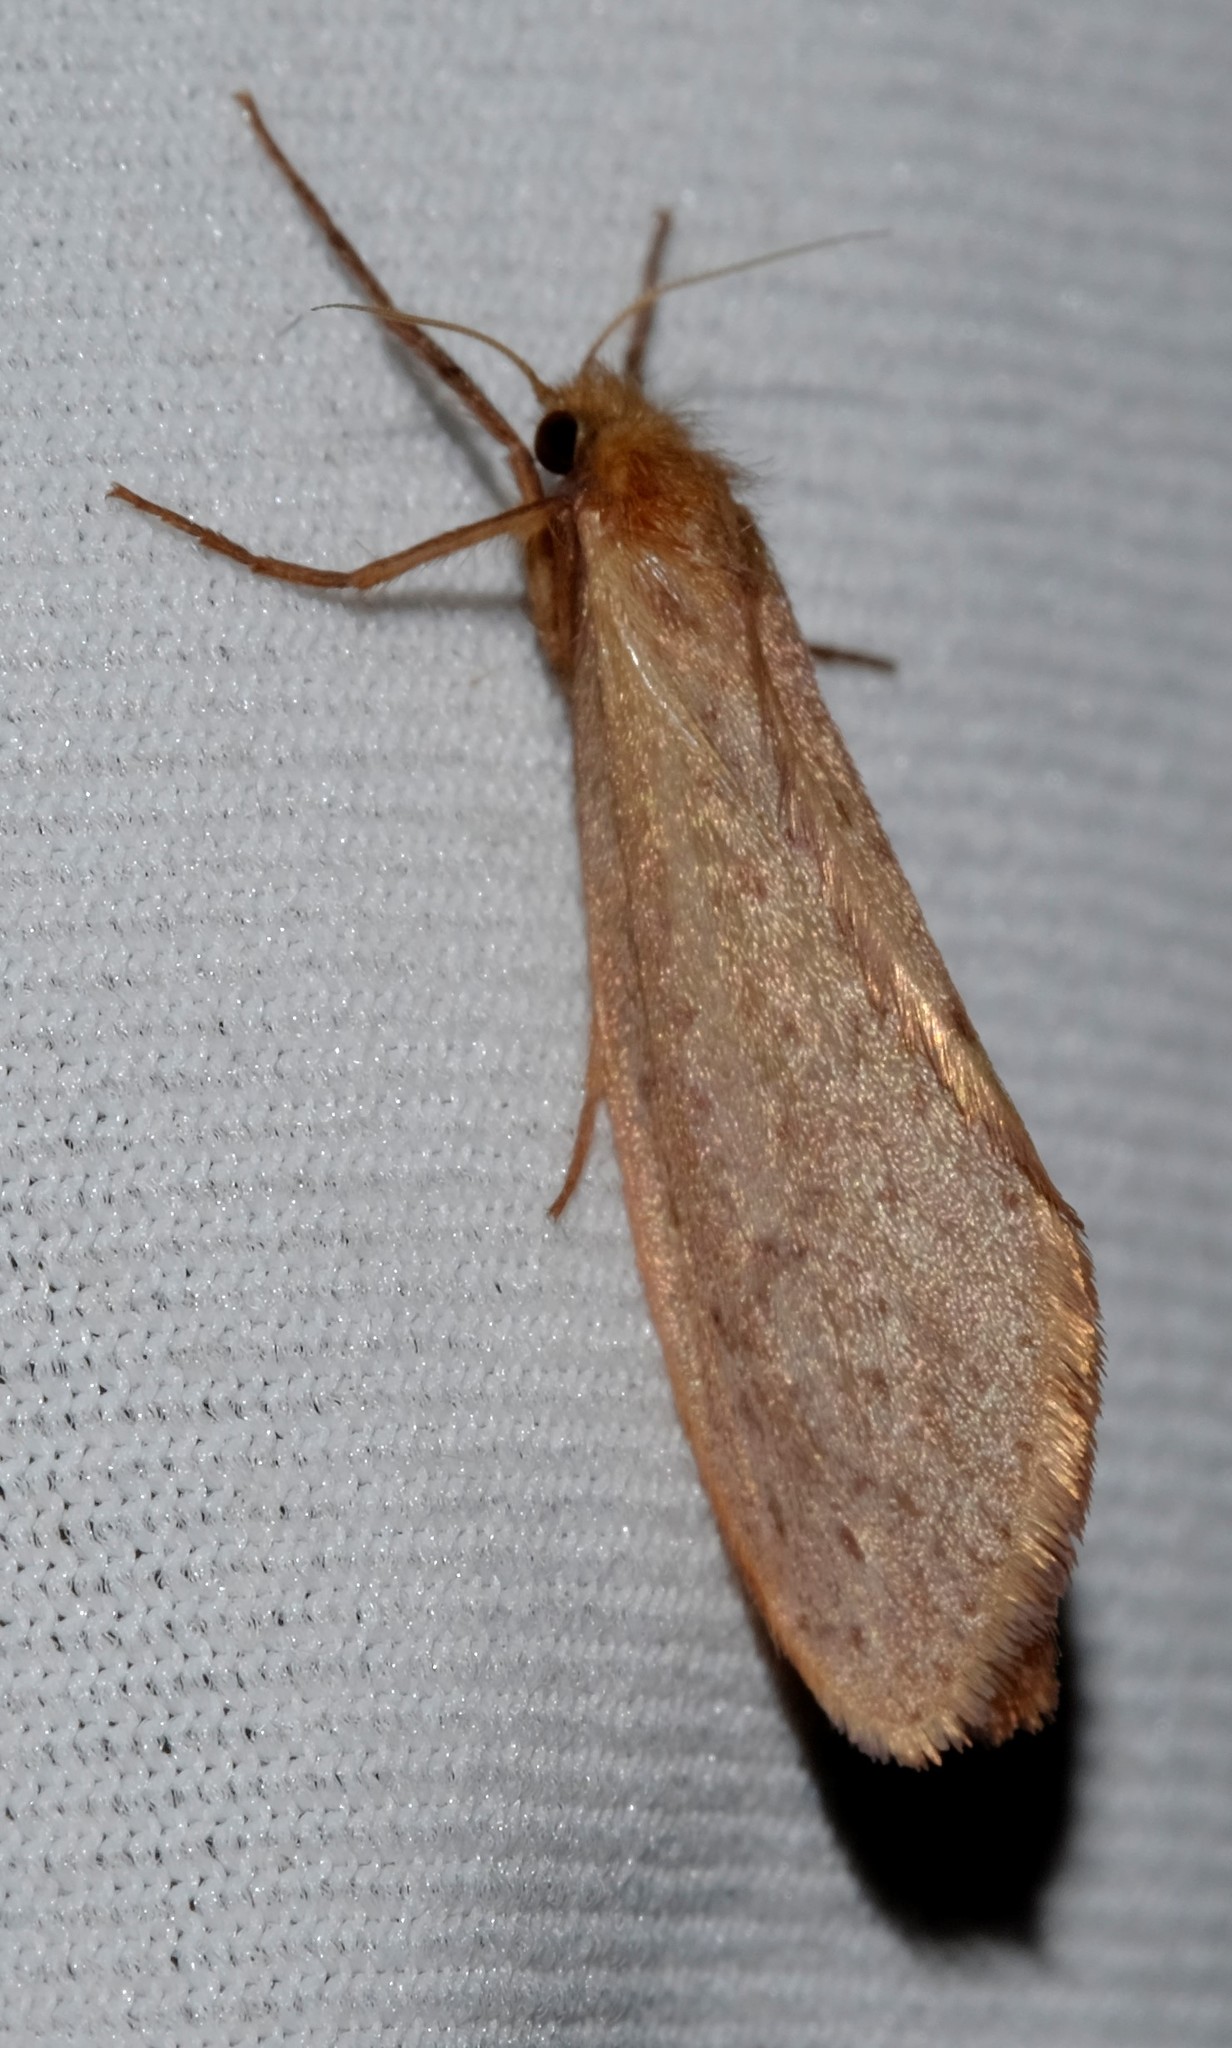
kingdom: Animalia
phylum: Arthropoda
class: Insecta
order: Lepidoptera
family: Hepialidae
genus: Fraus
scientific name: Fraus pteromela
